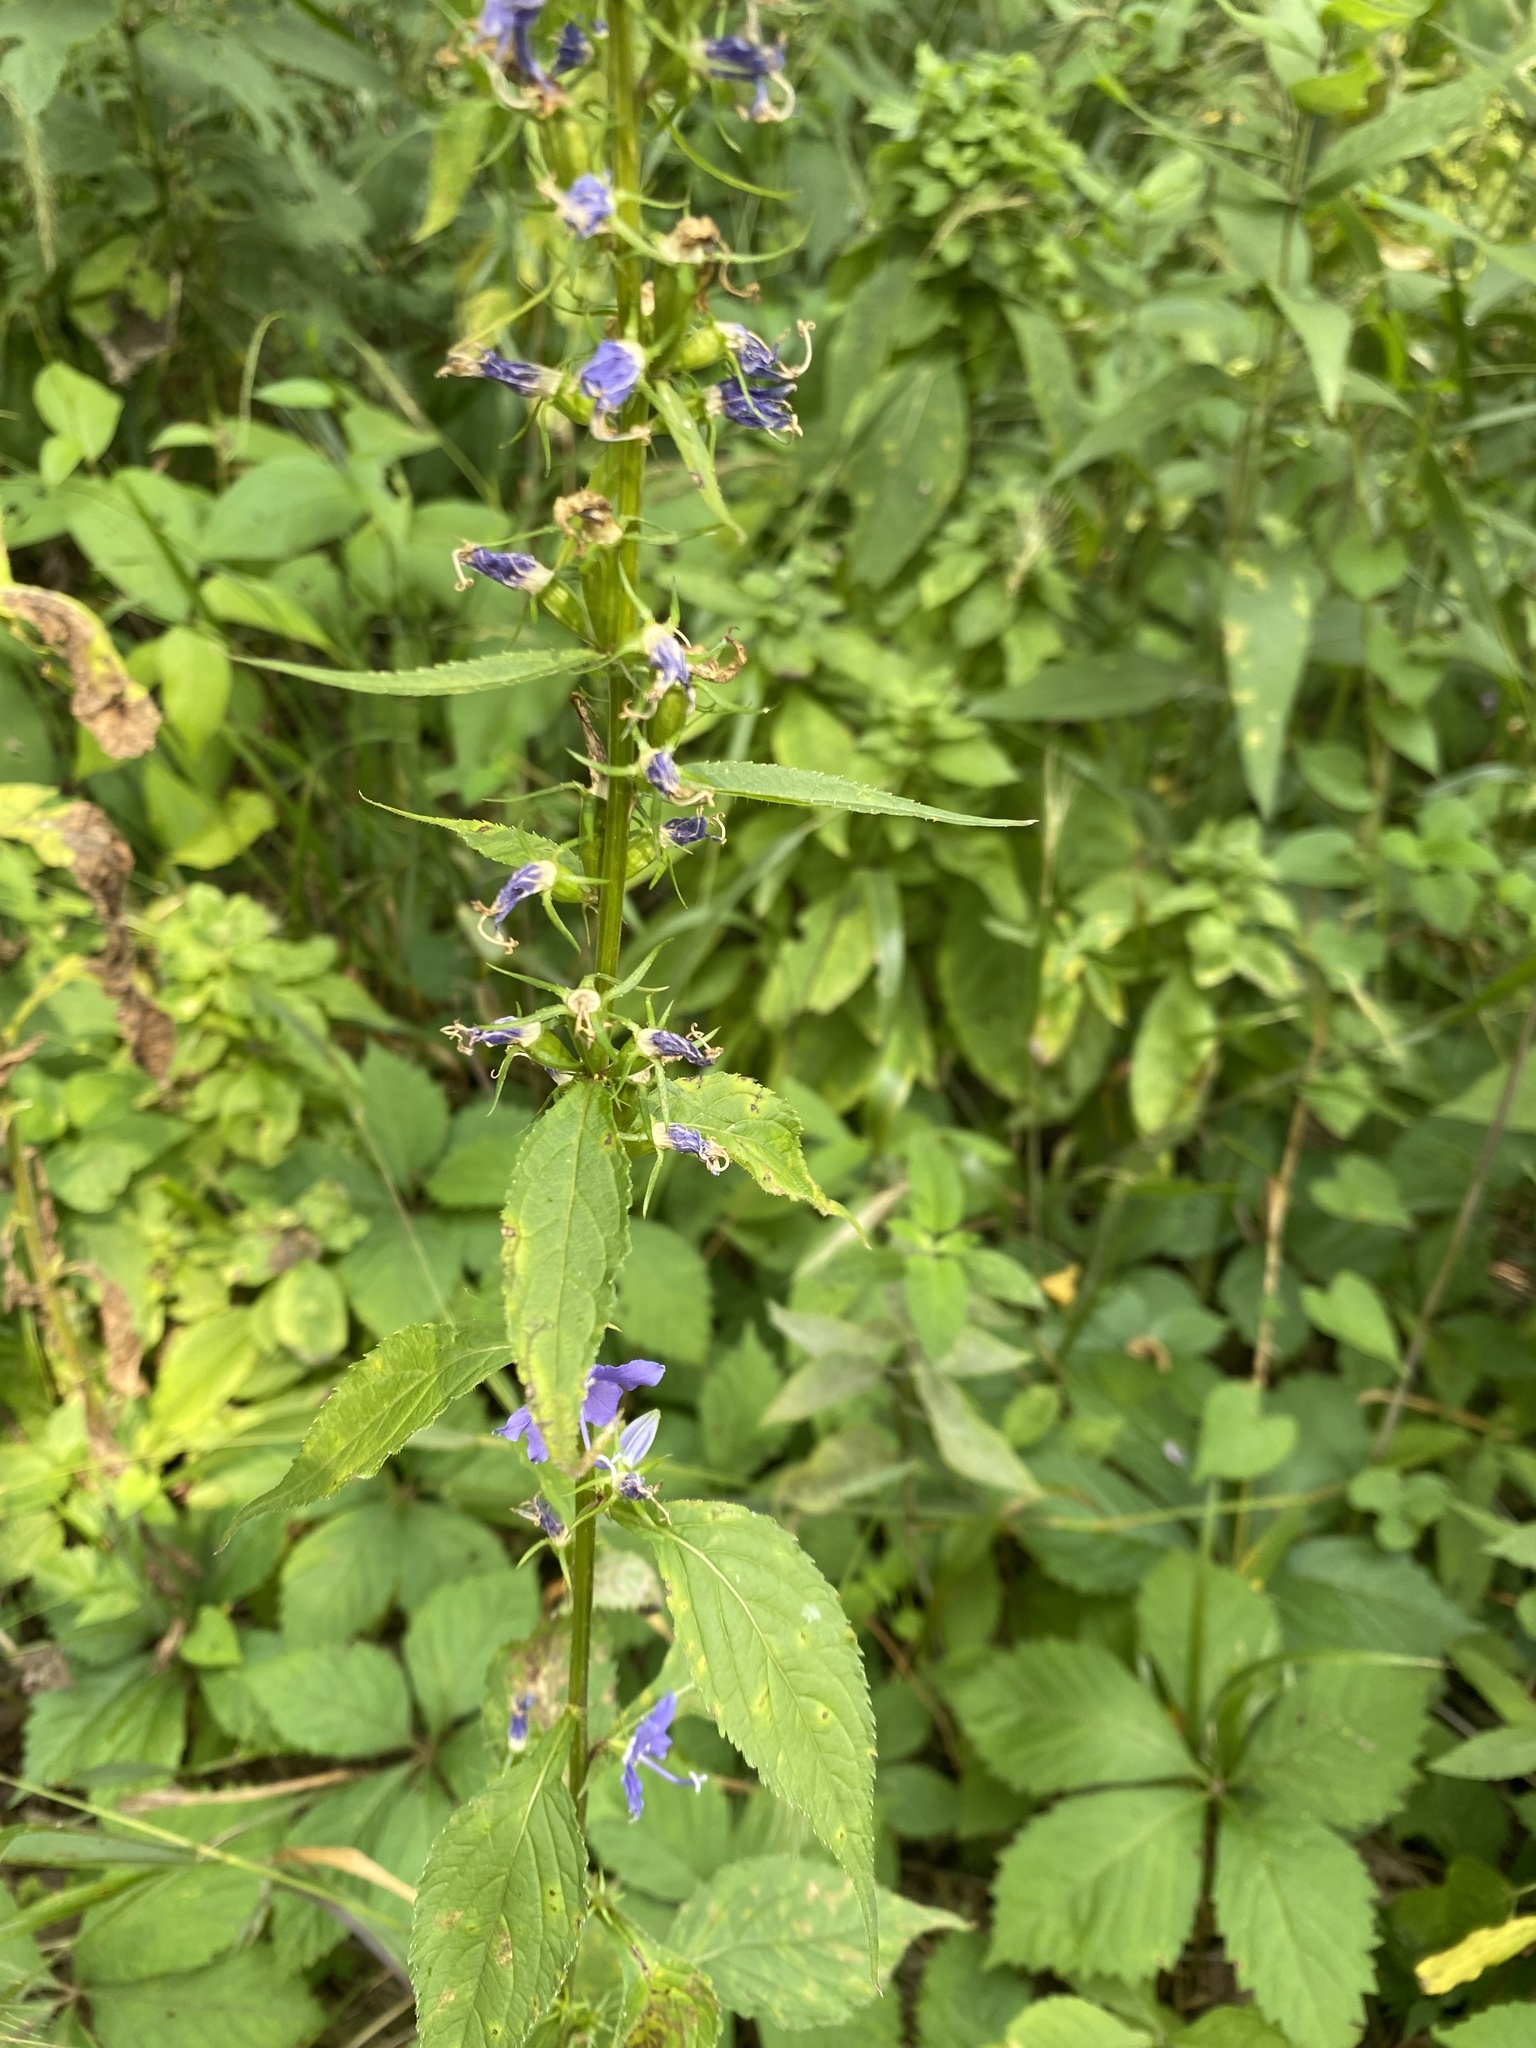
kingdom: Plantae
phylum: Tracheophyta
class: Magnoliopsida
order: Asterales
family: Campanulaceae
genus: Campanulastrum
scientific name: Campanulastrum americanum
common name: American bellflower
